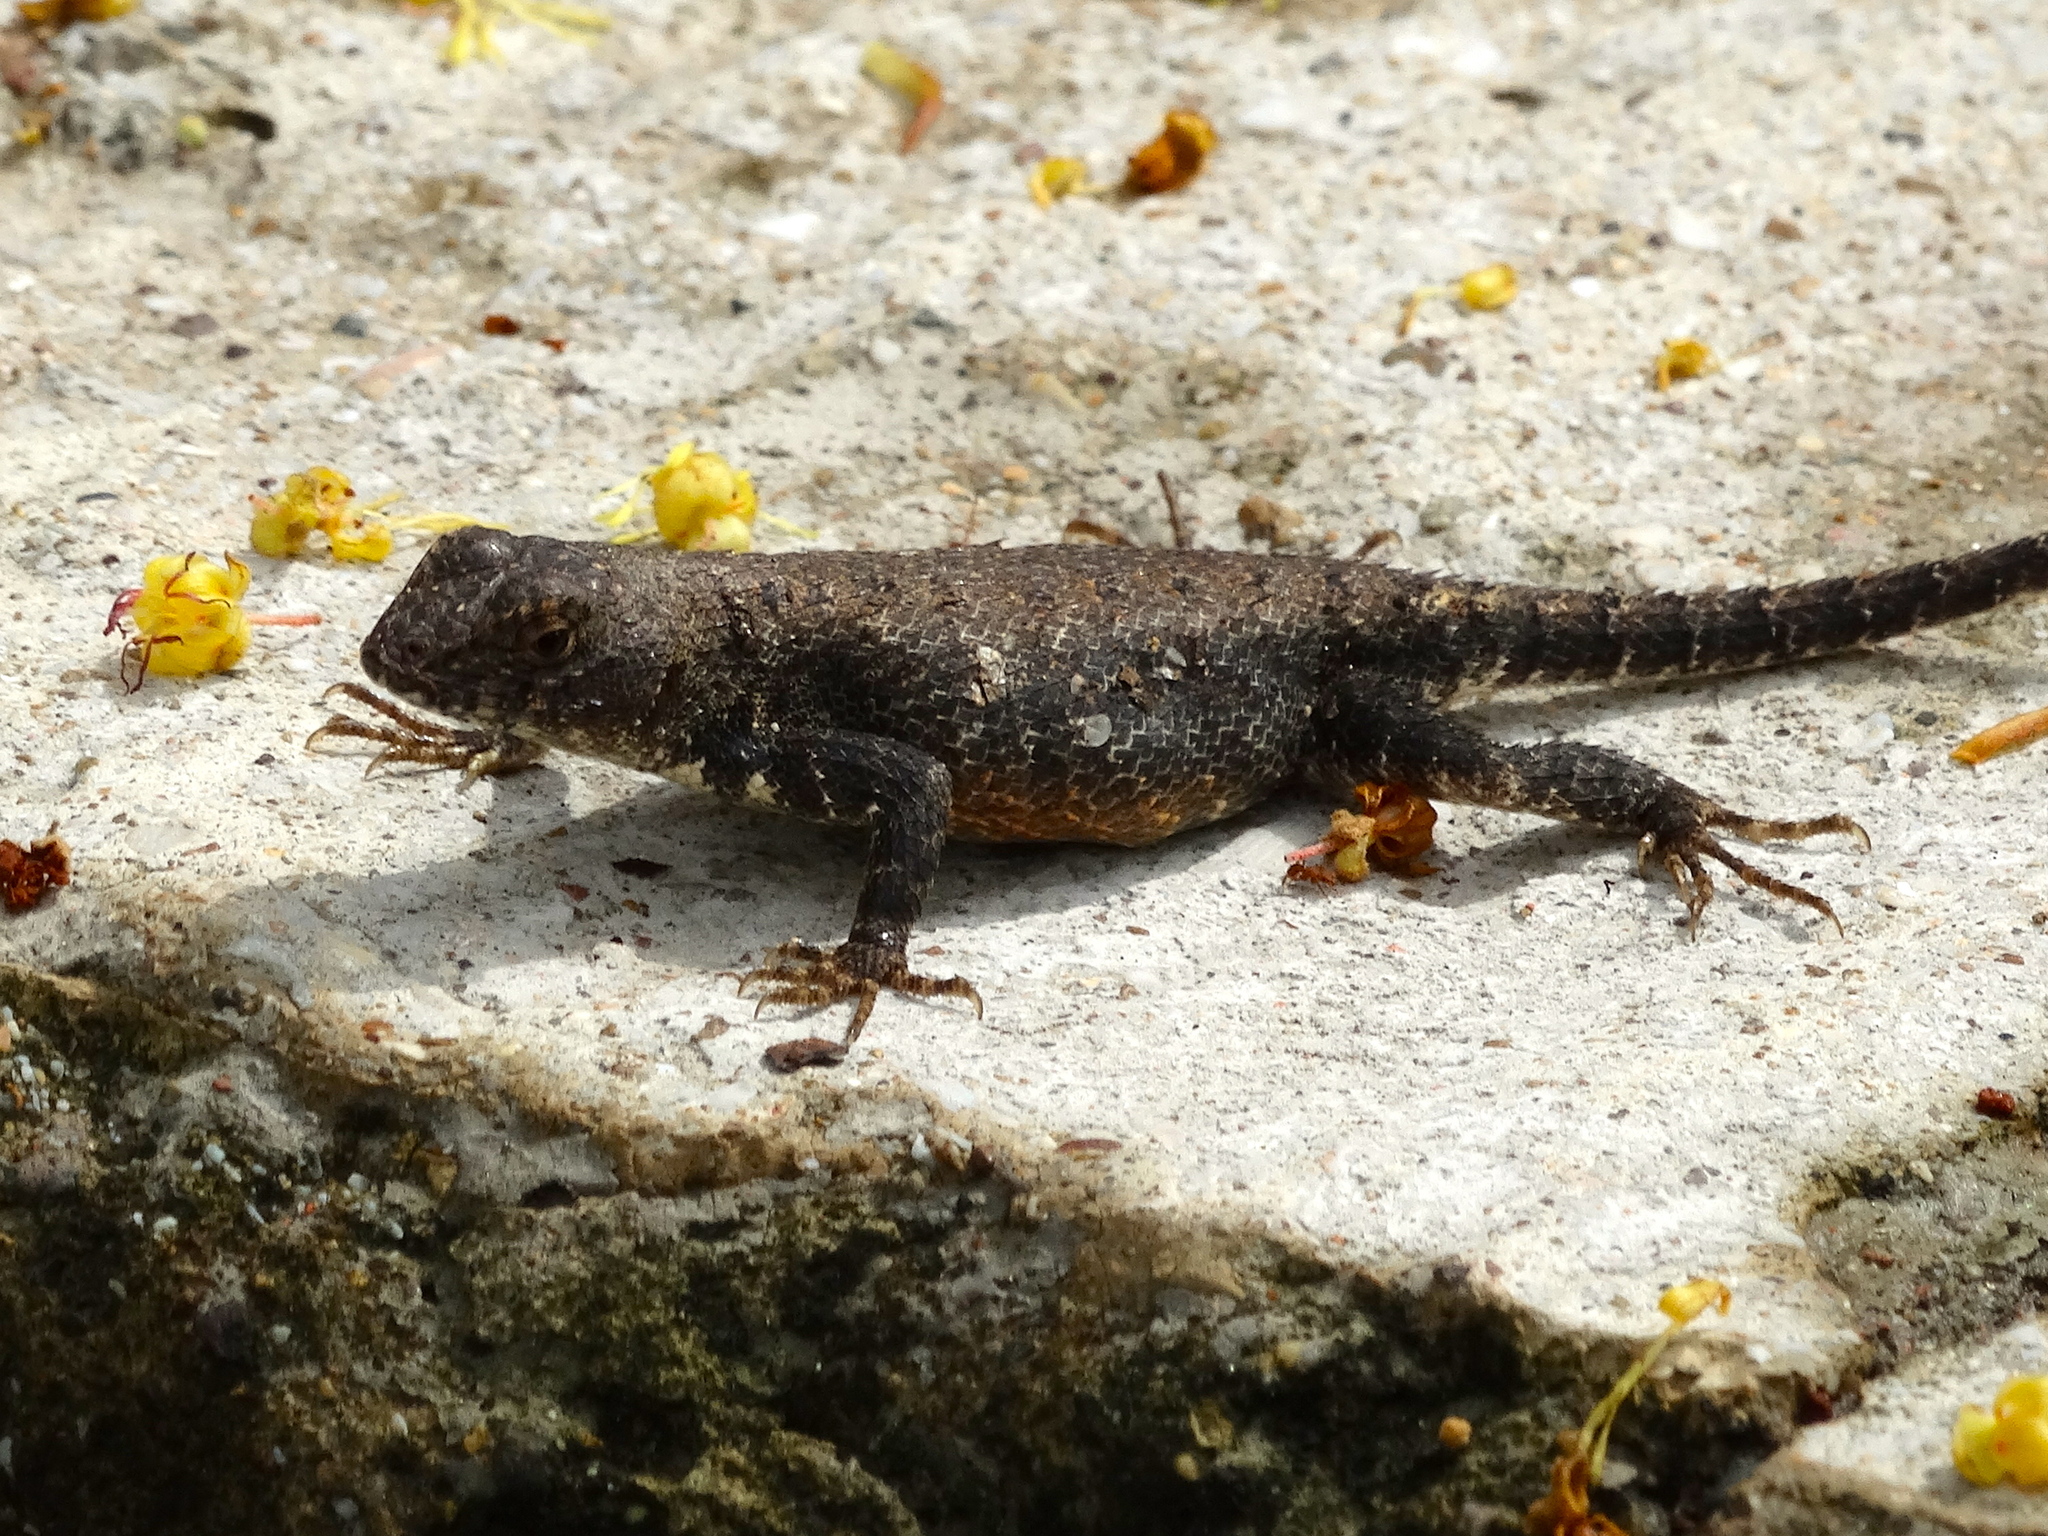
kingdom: Animalia
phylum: Chordata
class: Squamata
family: Phrynosomatidae
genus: Sceloporus
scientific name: Sceloporus nelsoni
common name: Nelson's spiny lizard
